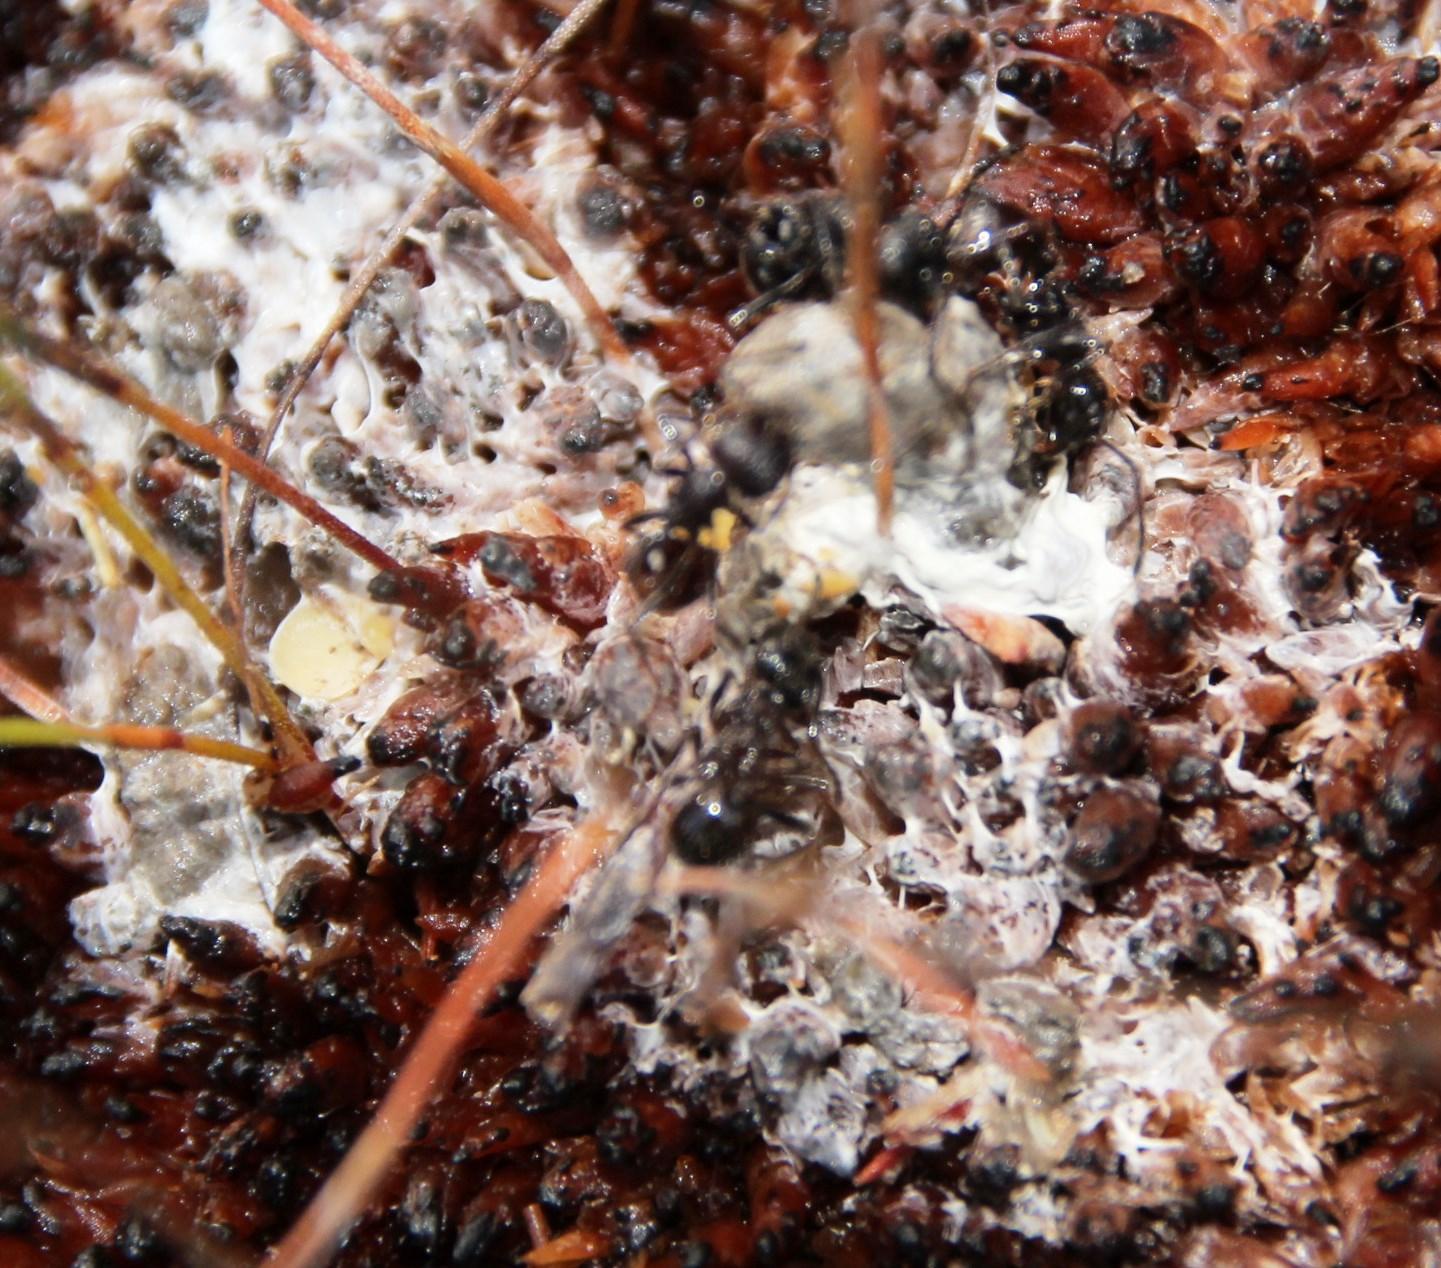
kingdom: Animalia
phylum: Arthropoda
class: Insecta
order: Hymenoptera
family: Formicidae
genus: Myrmicaria
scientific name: Myrmicaria nigra
